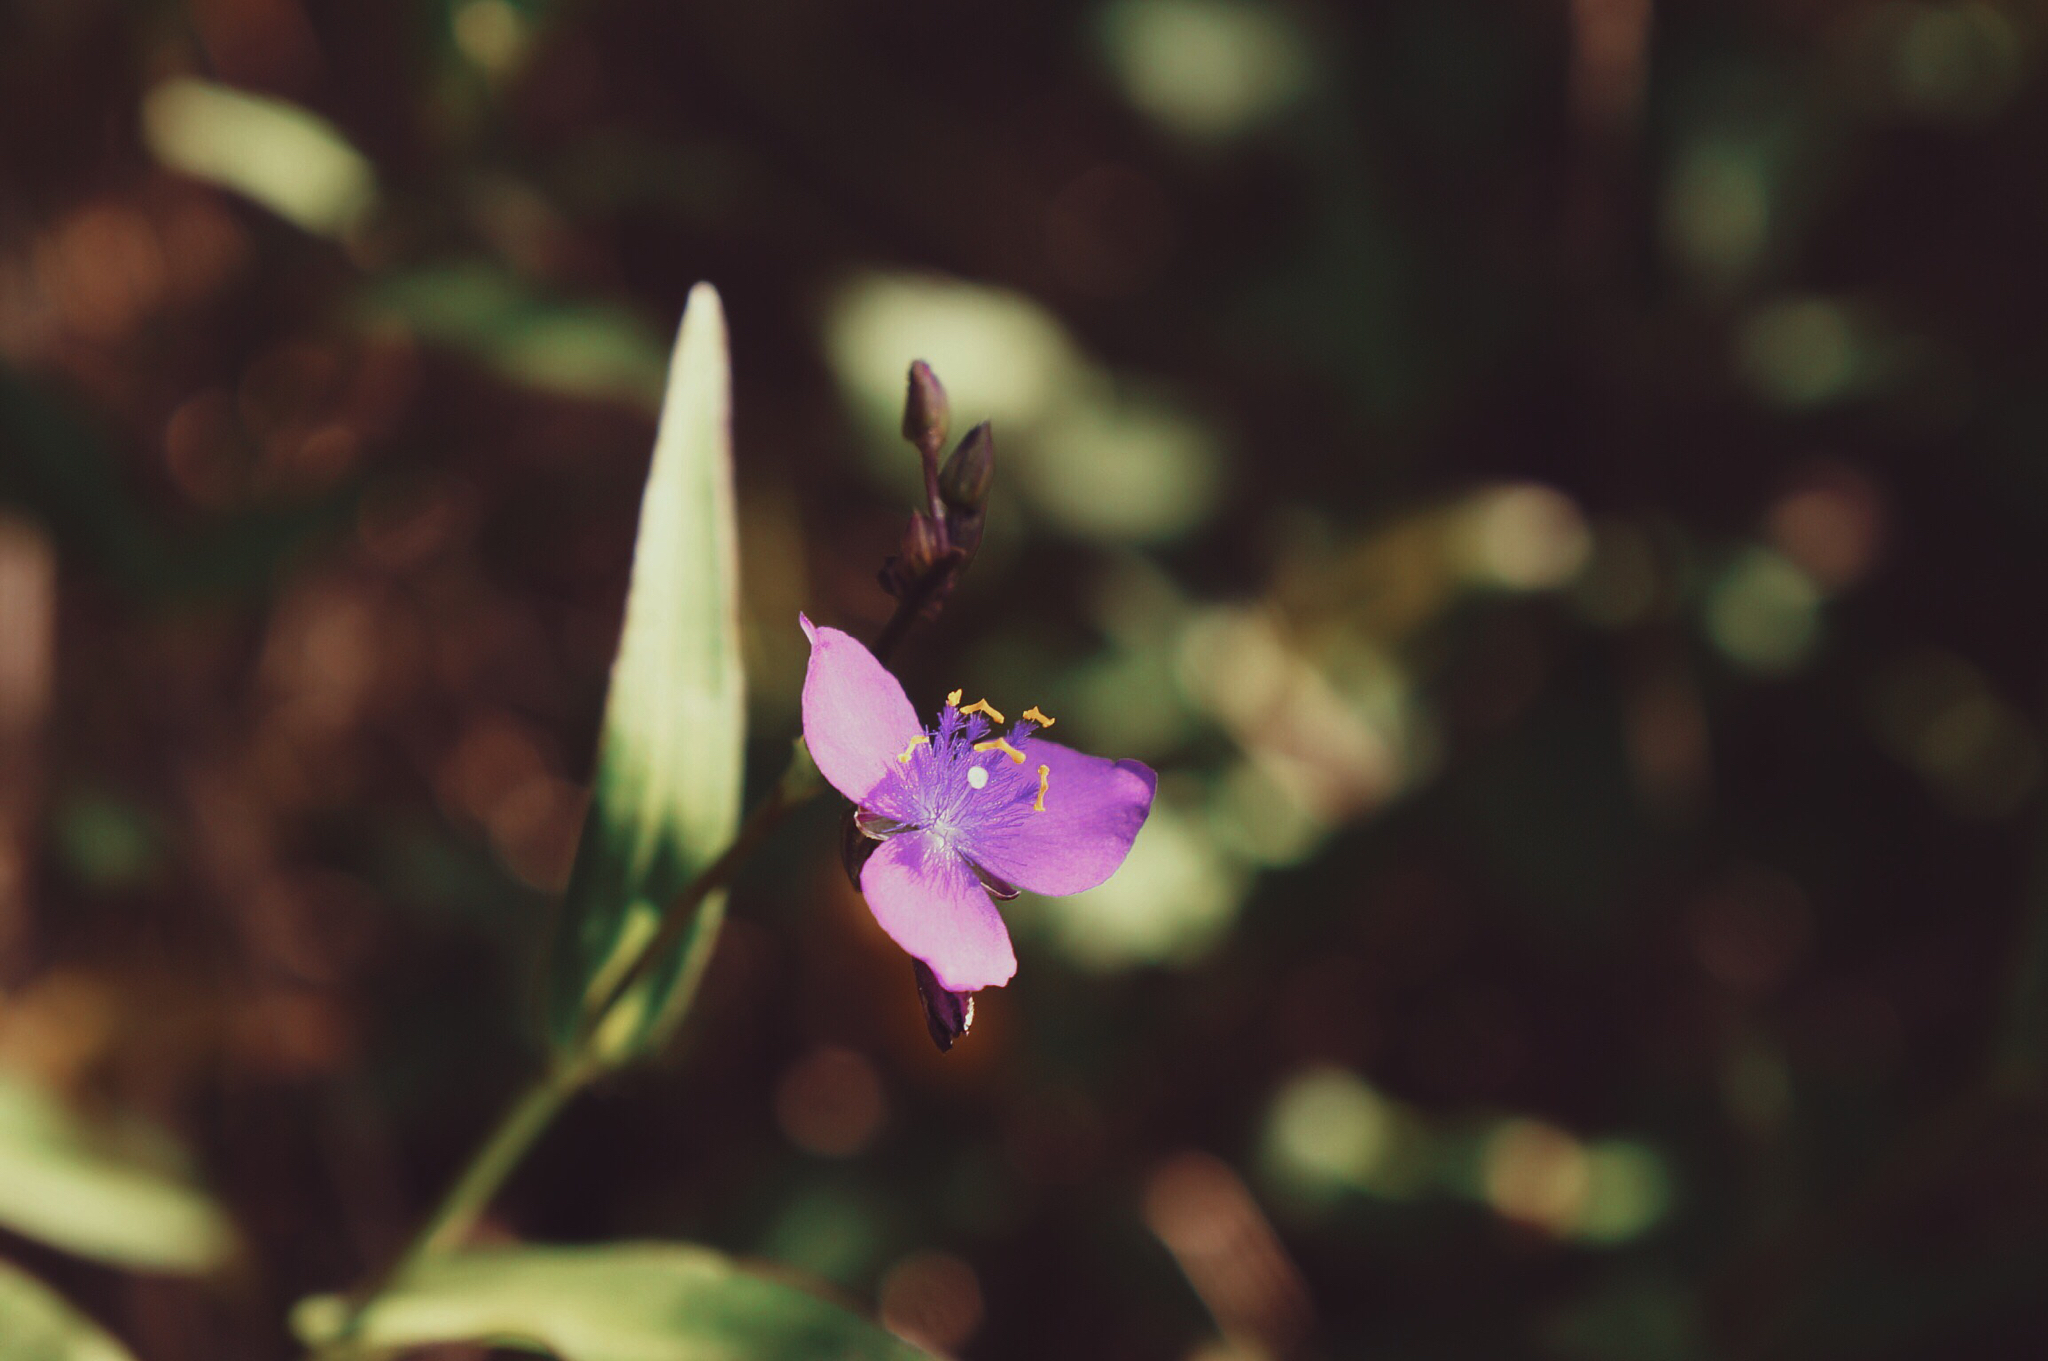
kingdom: Plantae
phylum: Tracheophyta
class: Liliopsida
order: Commelinales
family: Commelinaceae
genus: Gibasis
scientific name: Gibasis pulchella
